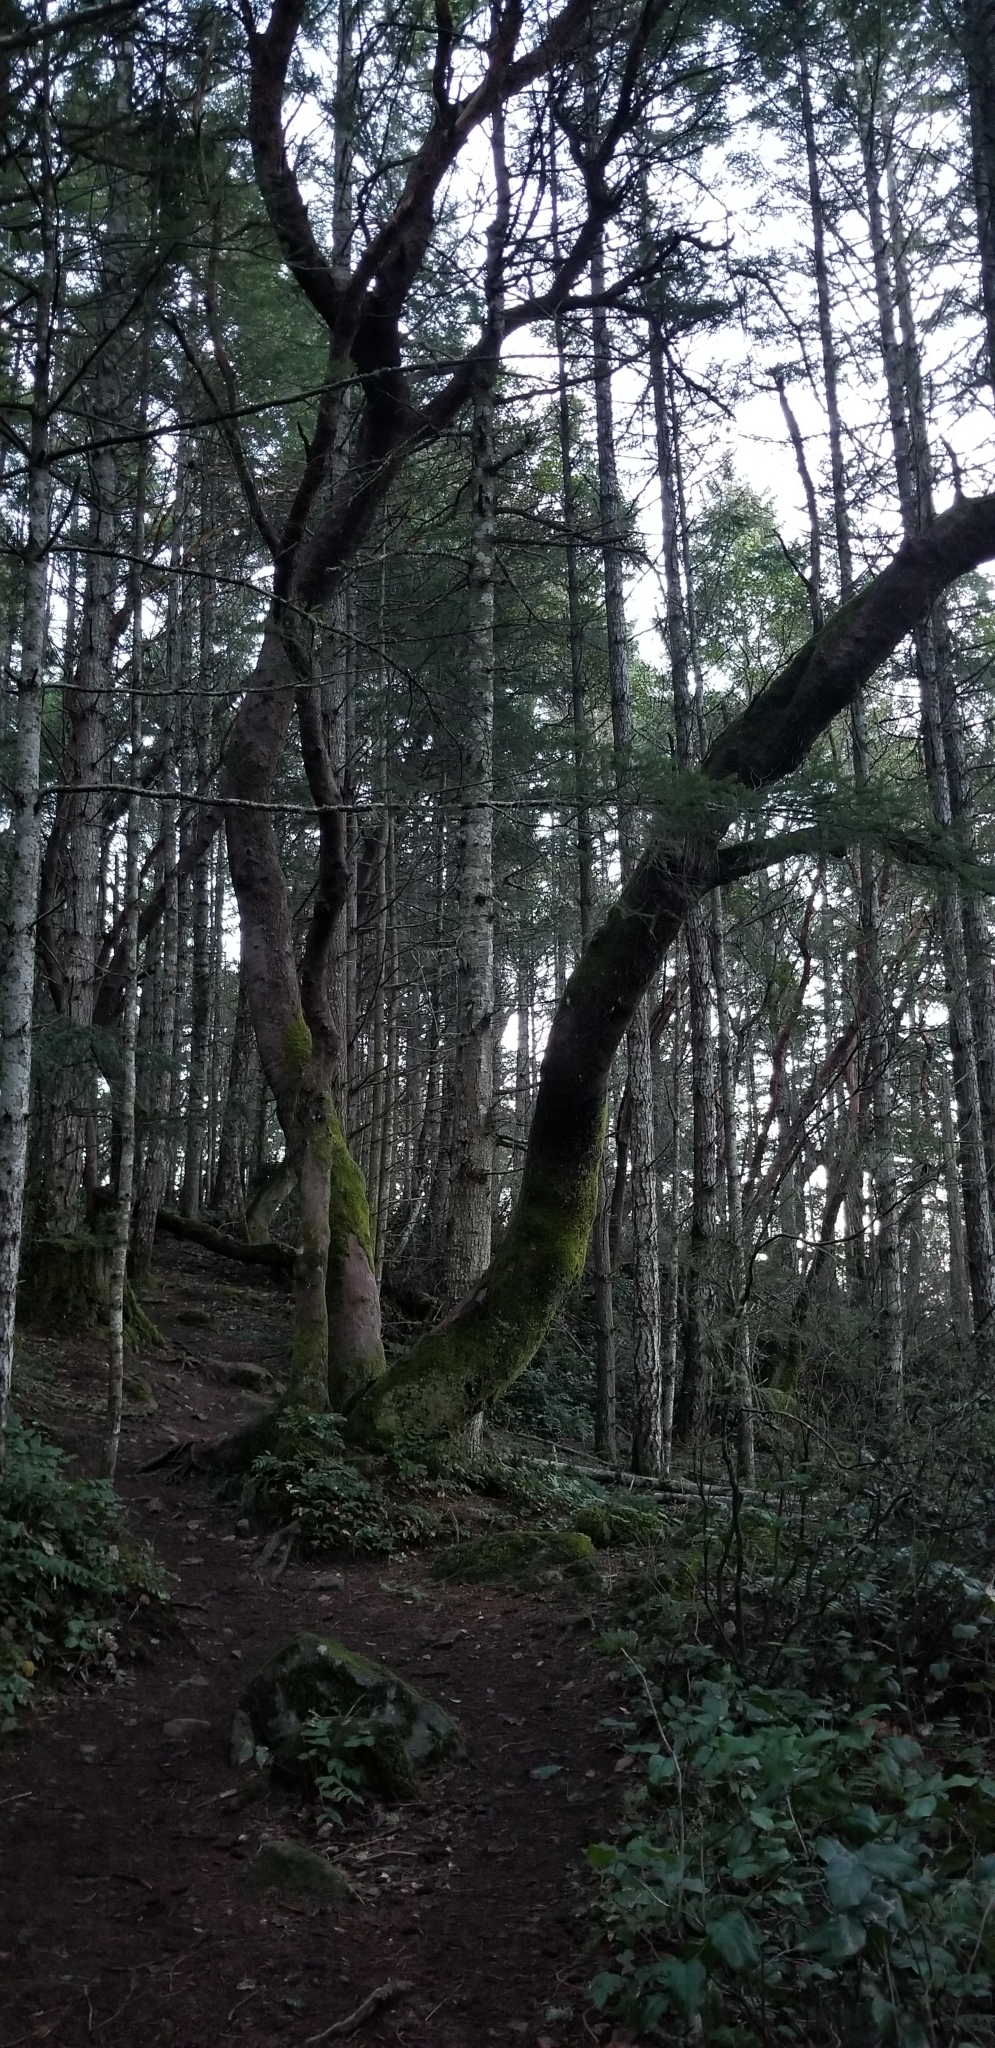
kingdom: Plantae
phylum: Tracheophyta
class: Magnoliopsida
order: Ericales
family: Ericaceae
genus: Arbutus
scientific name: Arbutus menziesii
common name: Pacific madrone
